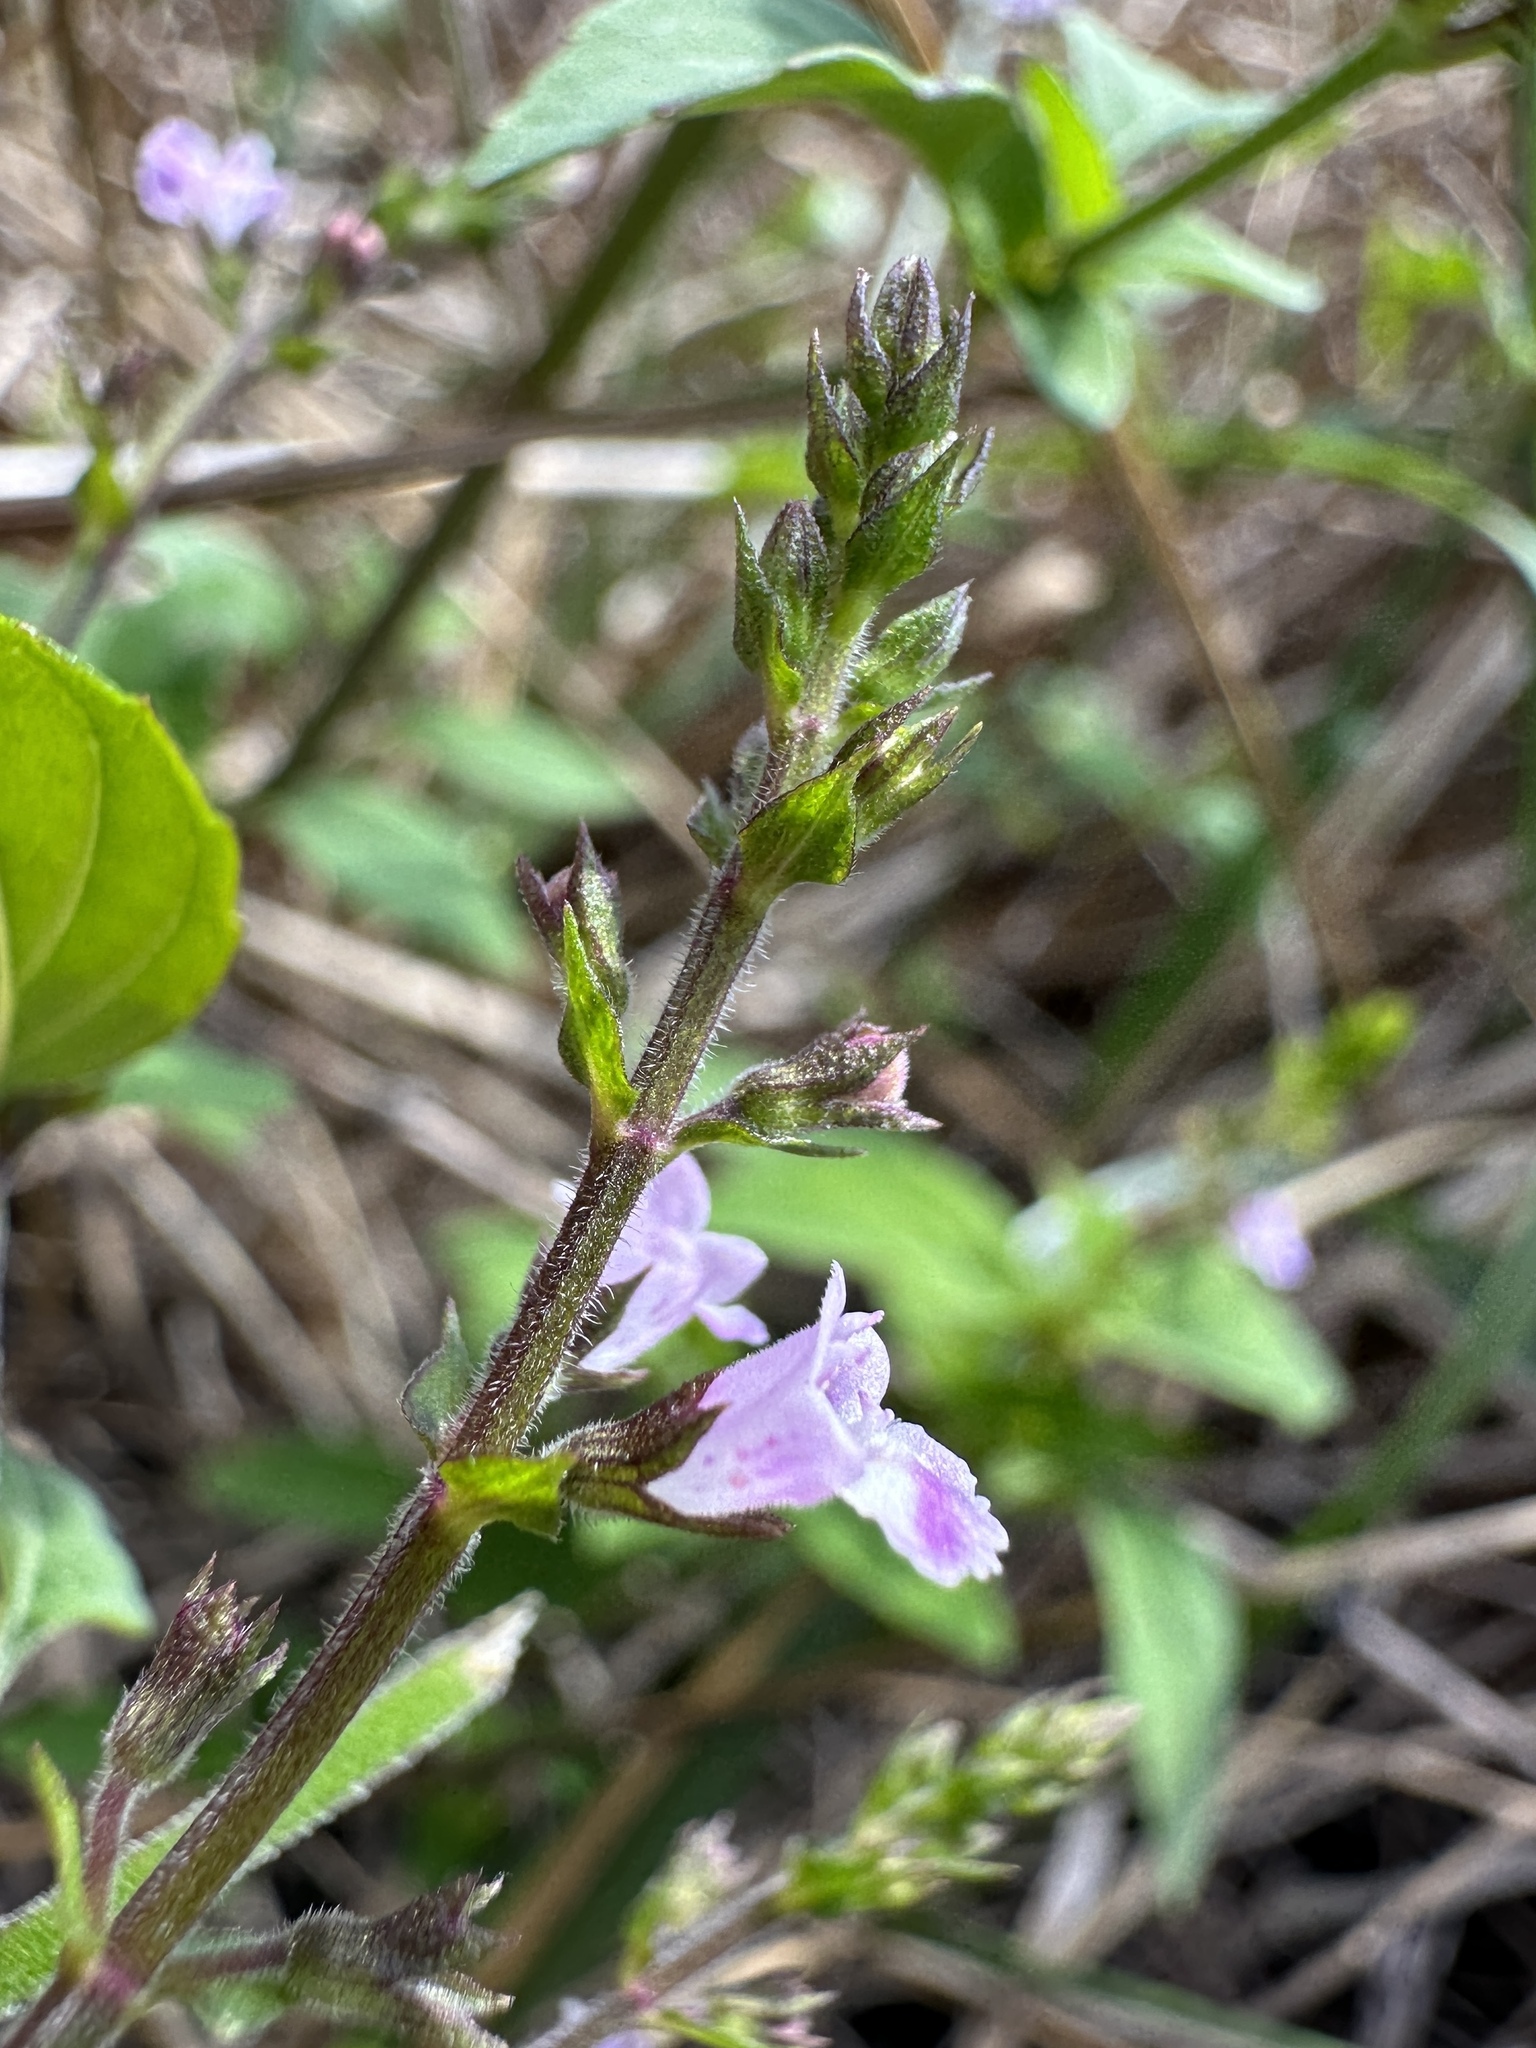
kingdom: Plantae
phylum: Tracheophyta
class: Magnoliopsida
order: Lamiales
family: Lamiaceae
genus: Mosla
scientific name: Mosla dianthera
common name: Miniature beefsteakplant
